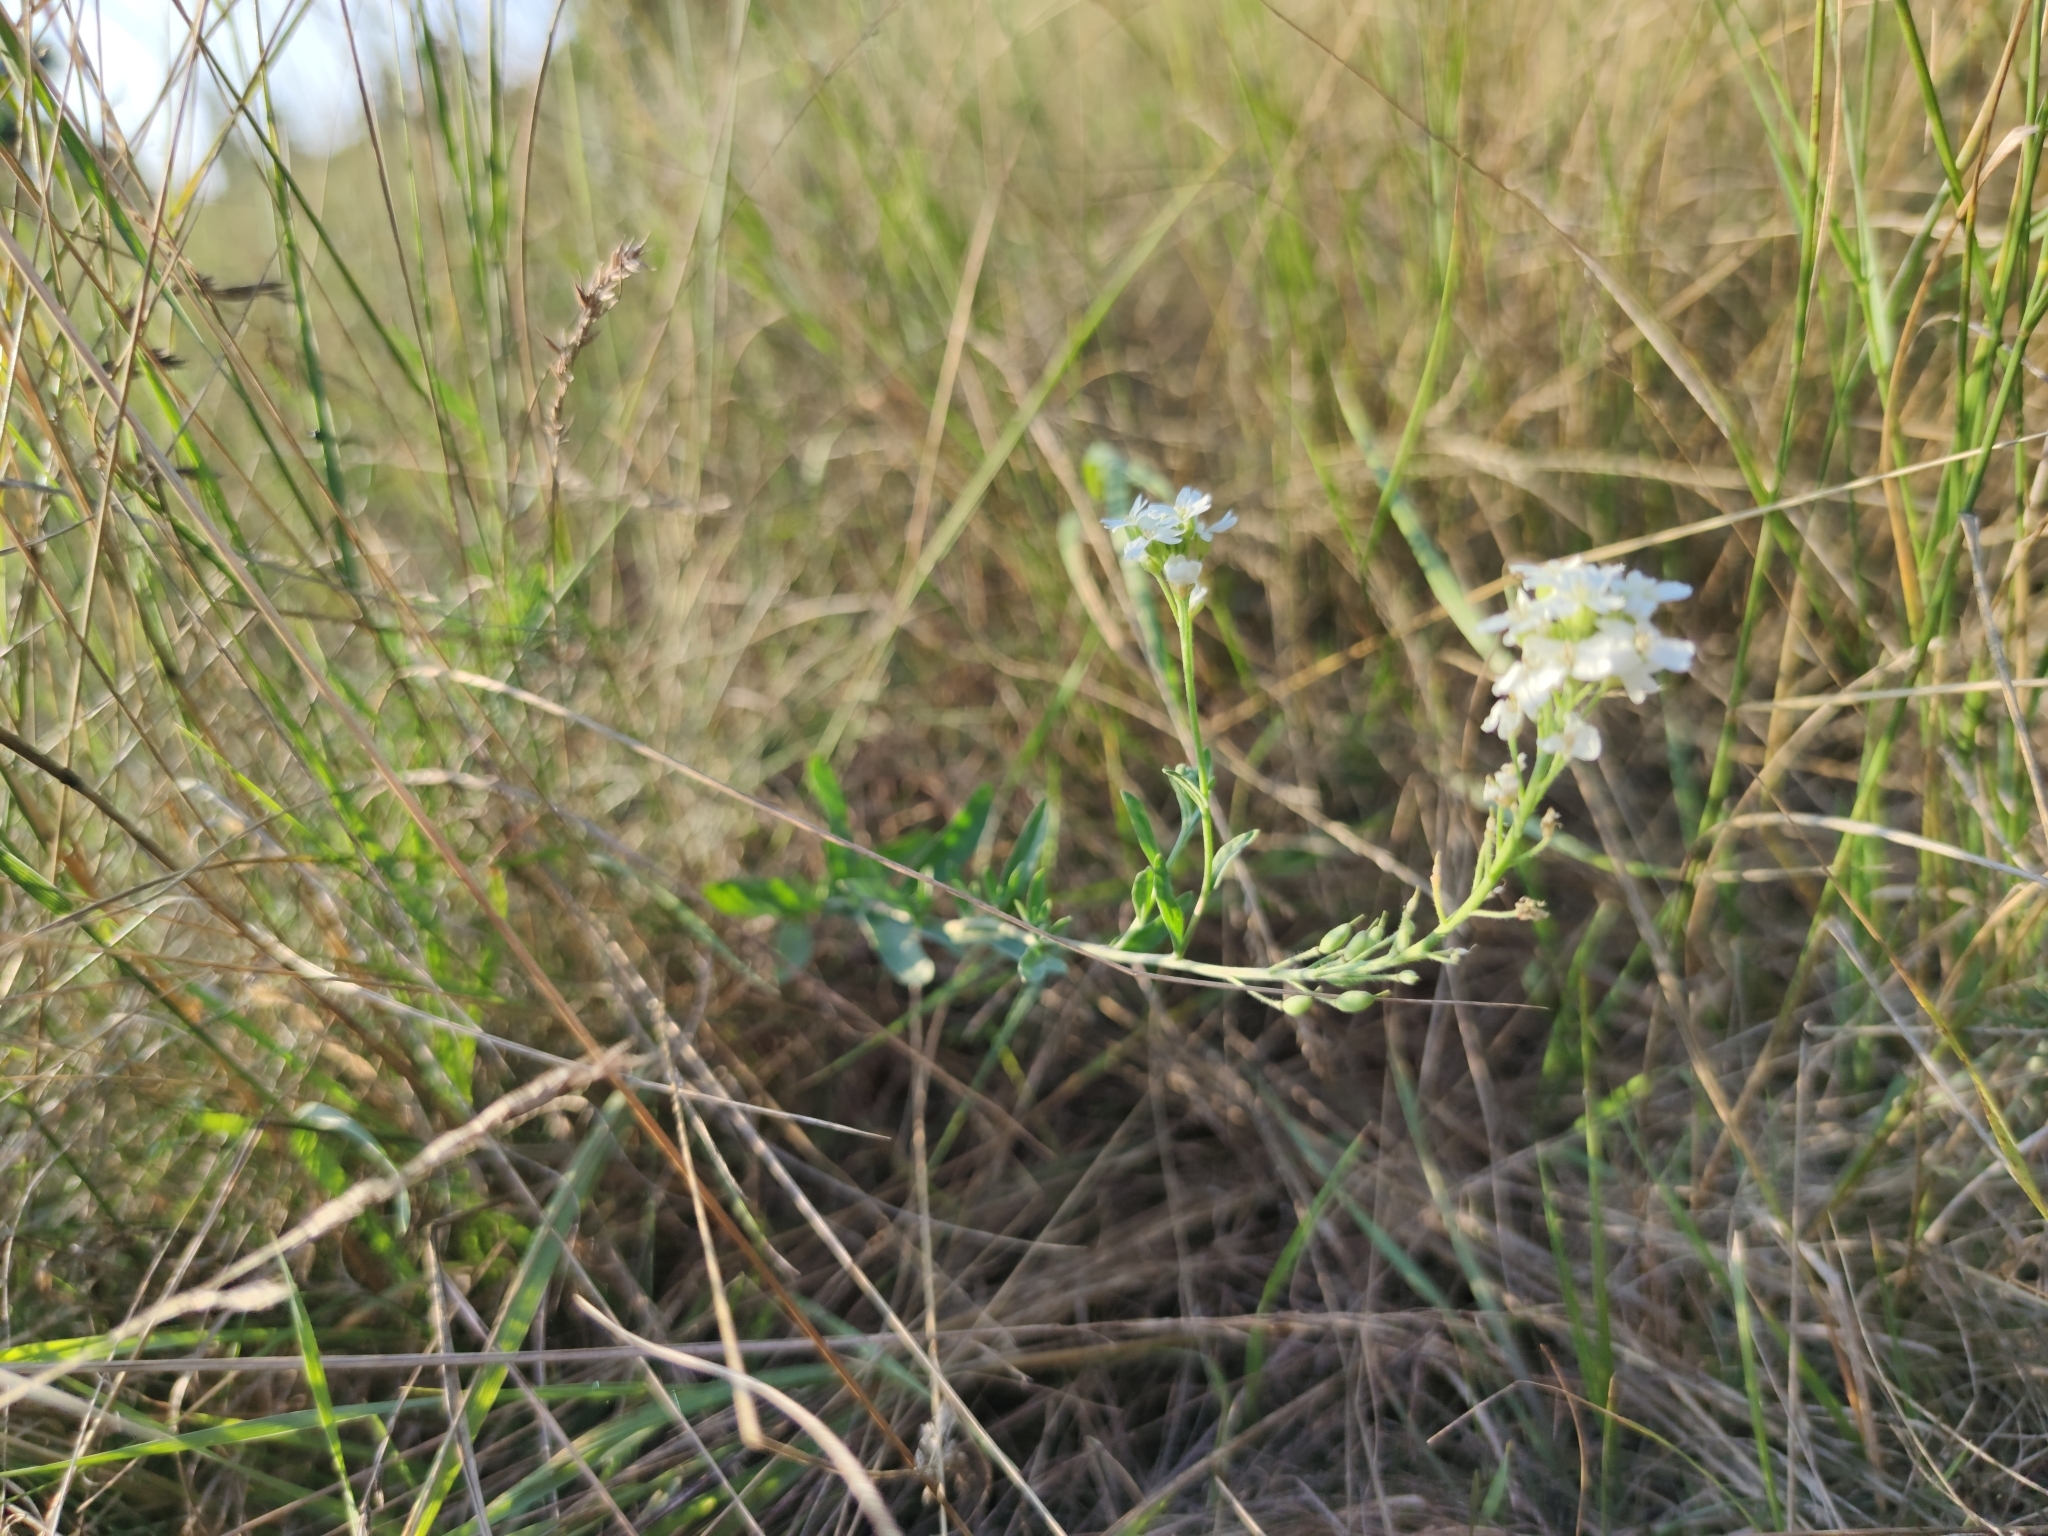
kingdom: Plantae
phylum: Tracheophyta
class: Magnoliopsida
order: Brassicales
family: Brassicaceae
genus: Berteroa
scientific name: Berteroa incana
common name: Hoary alison
